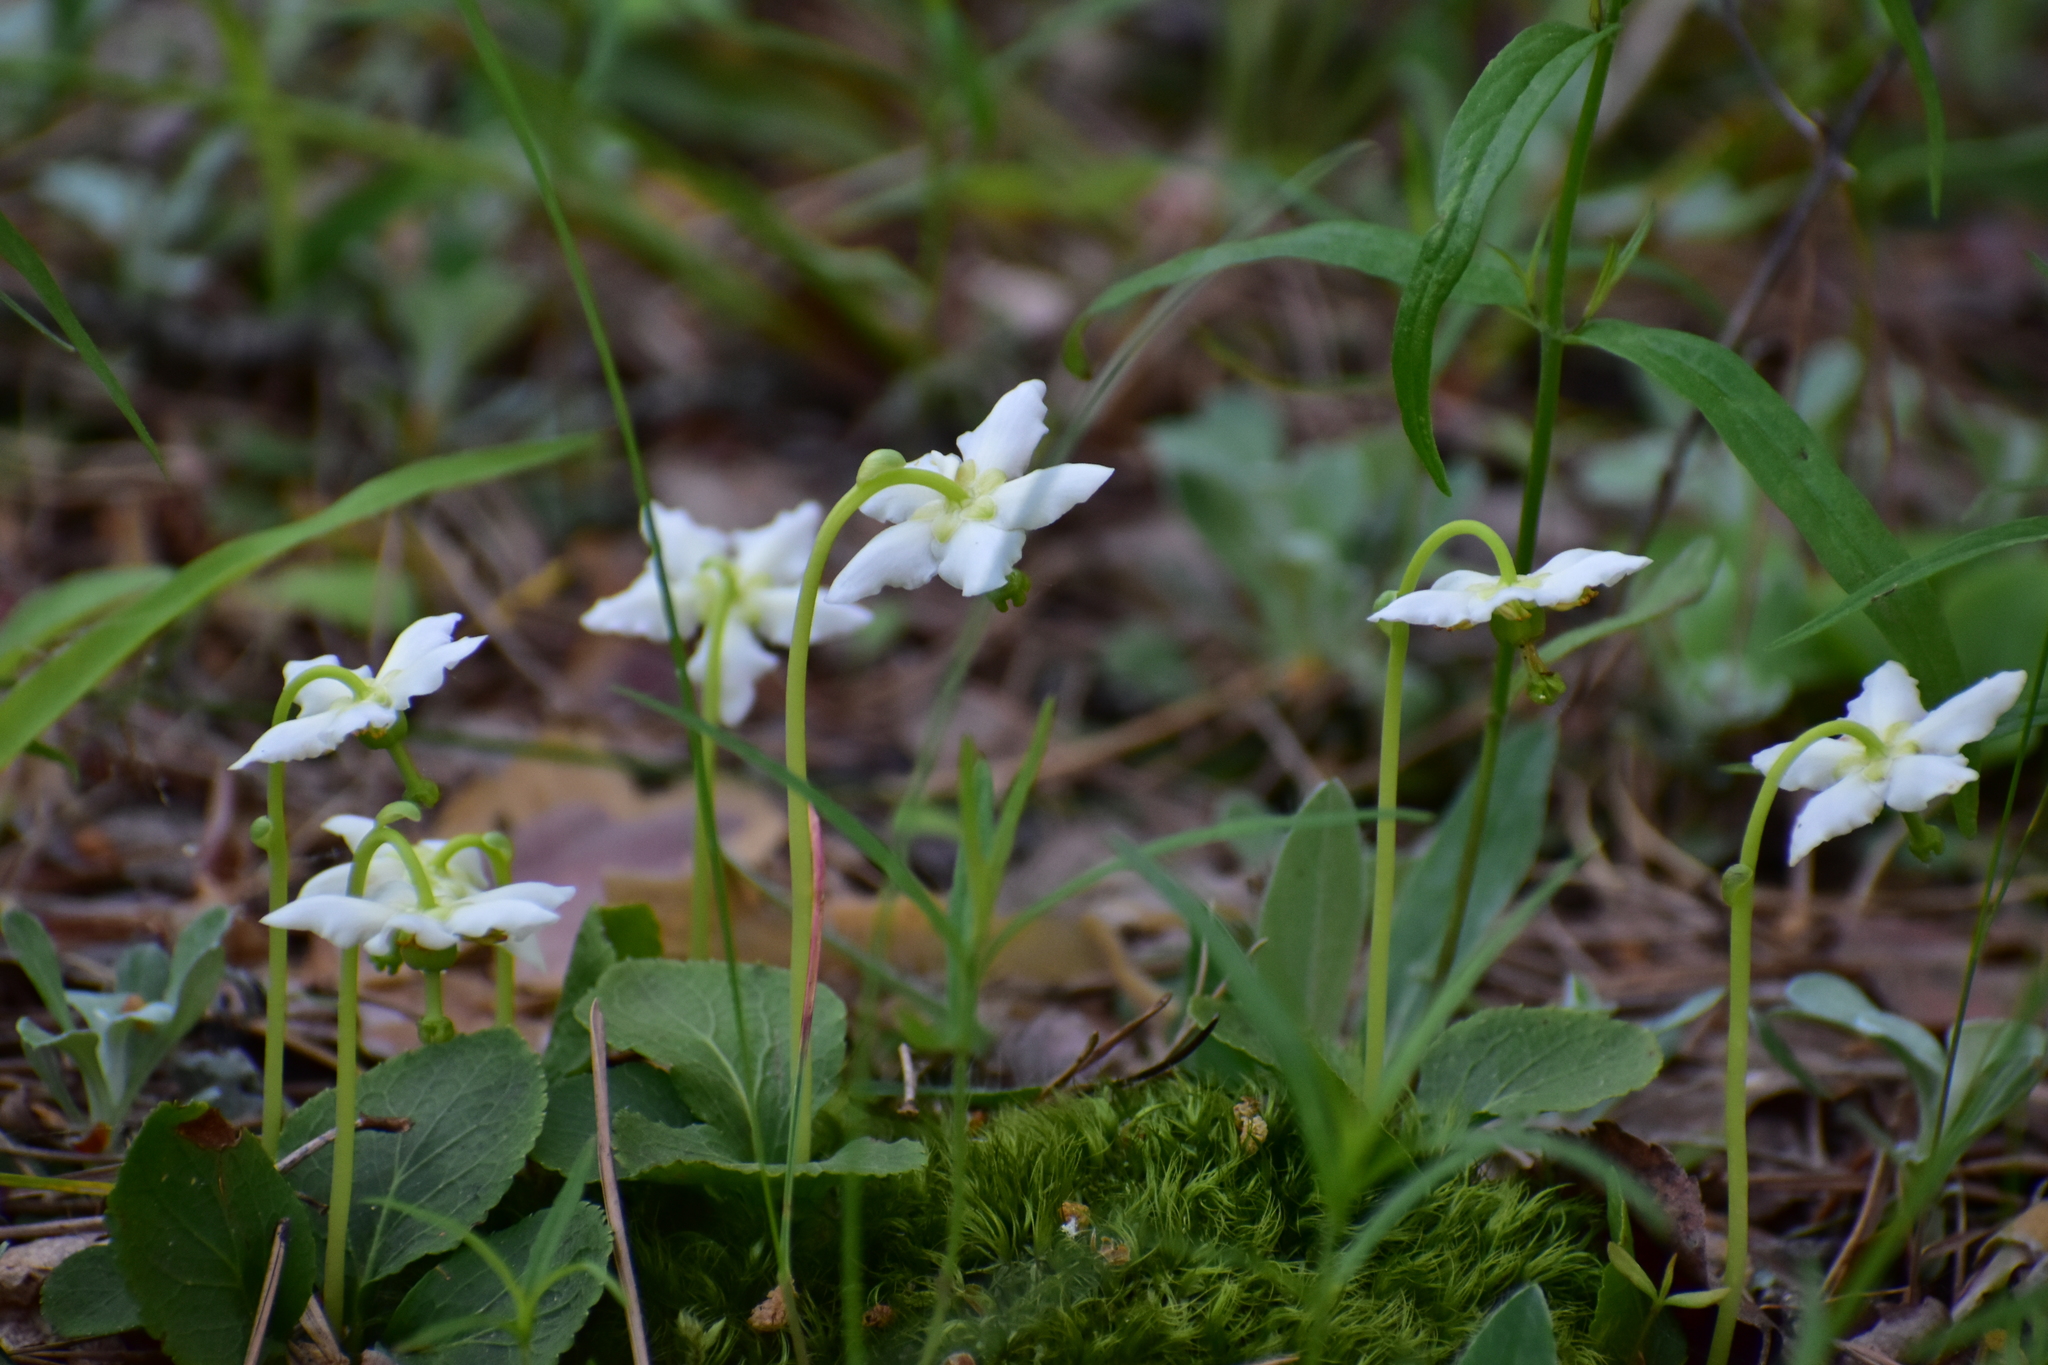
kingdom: Plantae
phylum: Tracheophyta
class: Magnoliopsida
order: Ericales
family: Ericaceae
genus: Moneses
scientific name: Moneses uniflora
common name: One-flowered wintergreen
